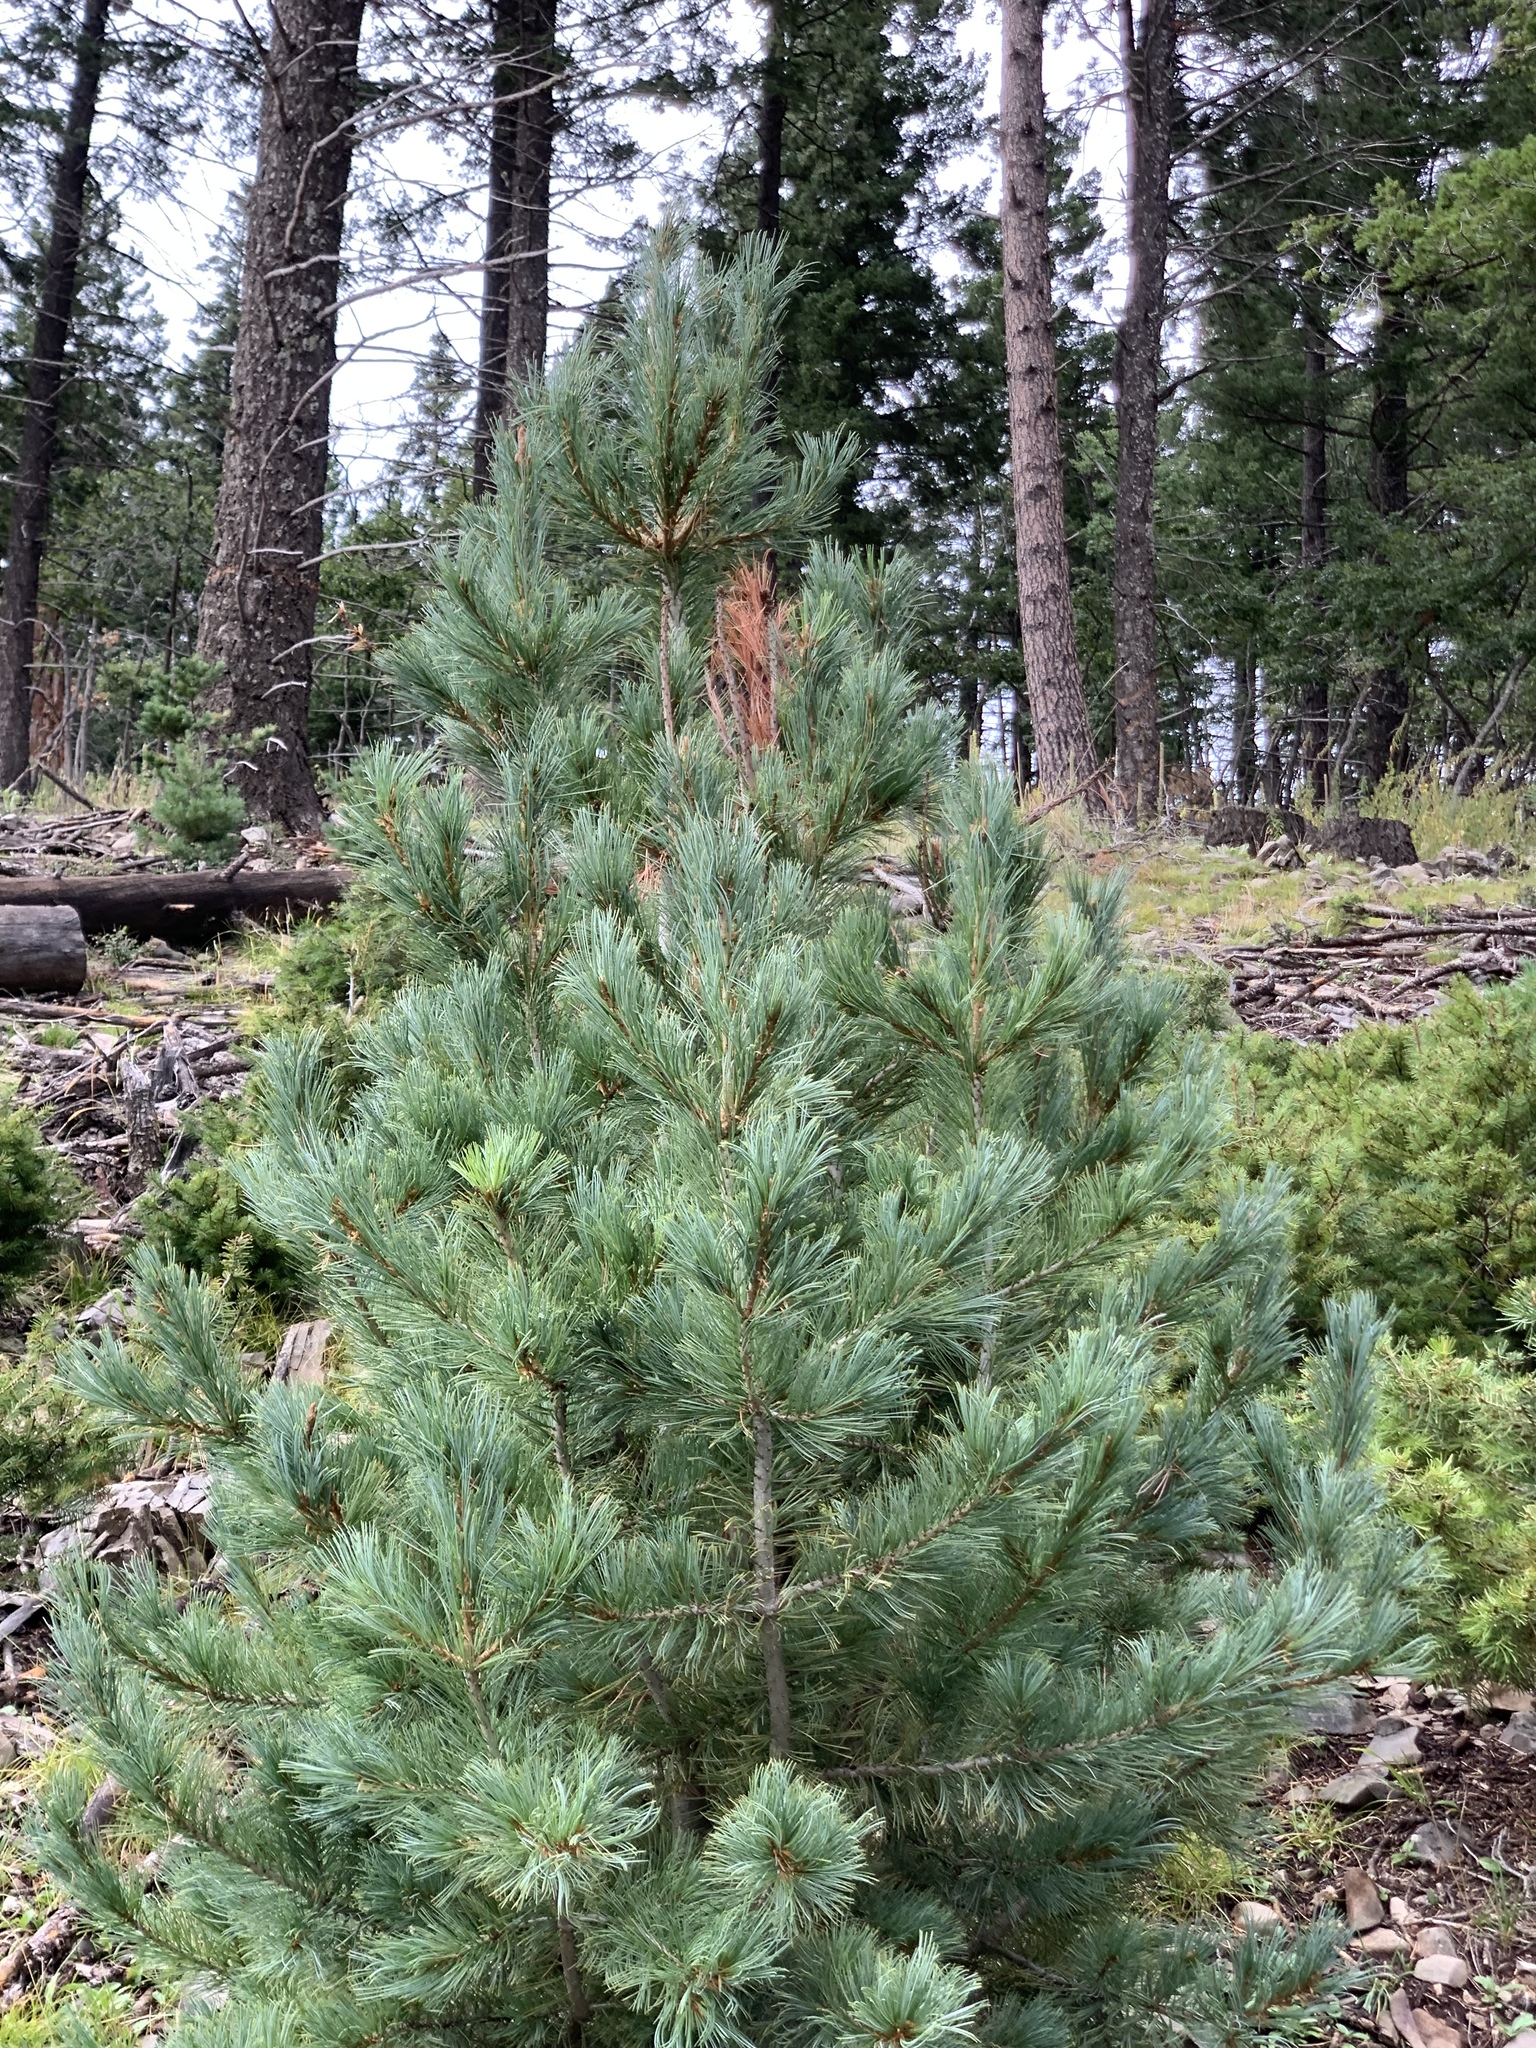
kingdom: Plantae
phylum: Tracheophyta
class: Pinopsida
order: Pinales
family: Pinaceae
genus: Pinus
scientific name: Pinus strobiformis
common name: Southwestern white pine
